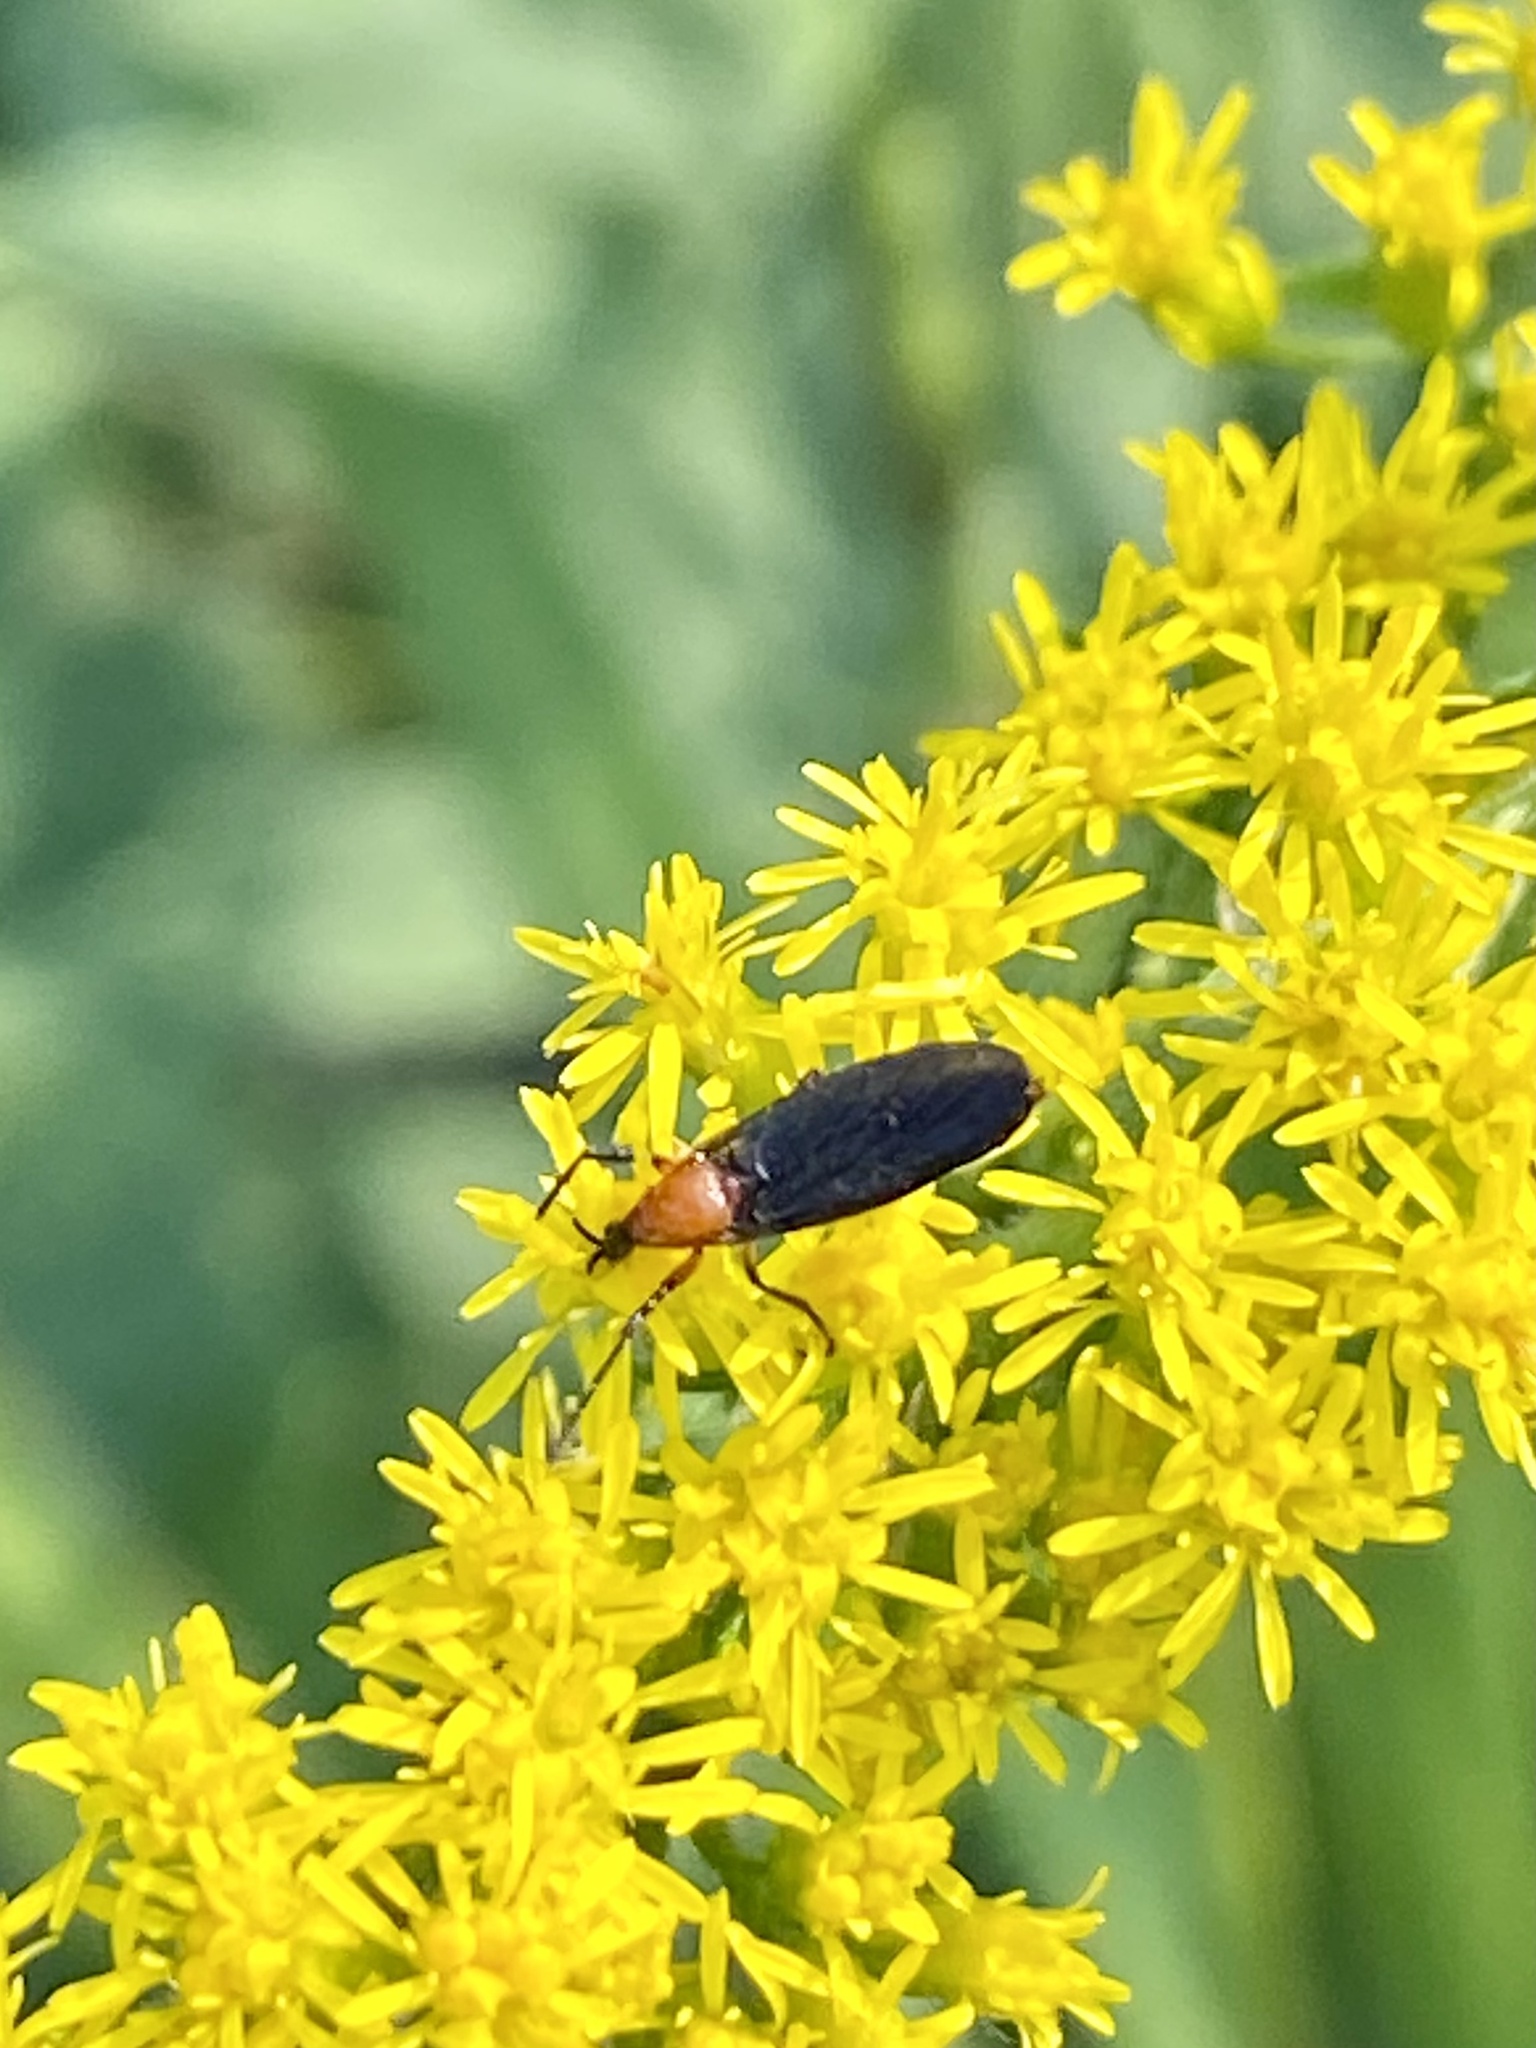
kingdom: Animalia
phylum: Arthropoda
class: Insecta
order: Diptera
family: Bibionidae
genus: Dilophus
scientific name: Dilophus spinipes
